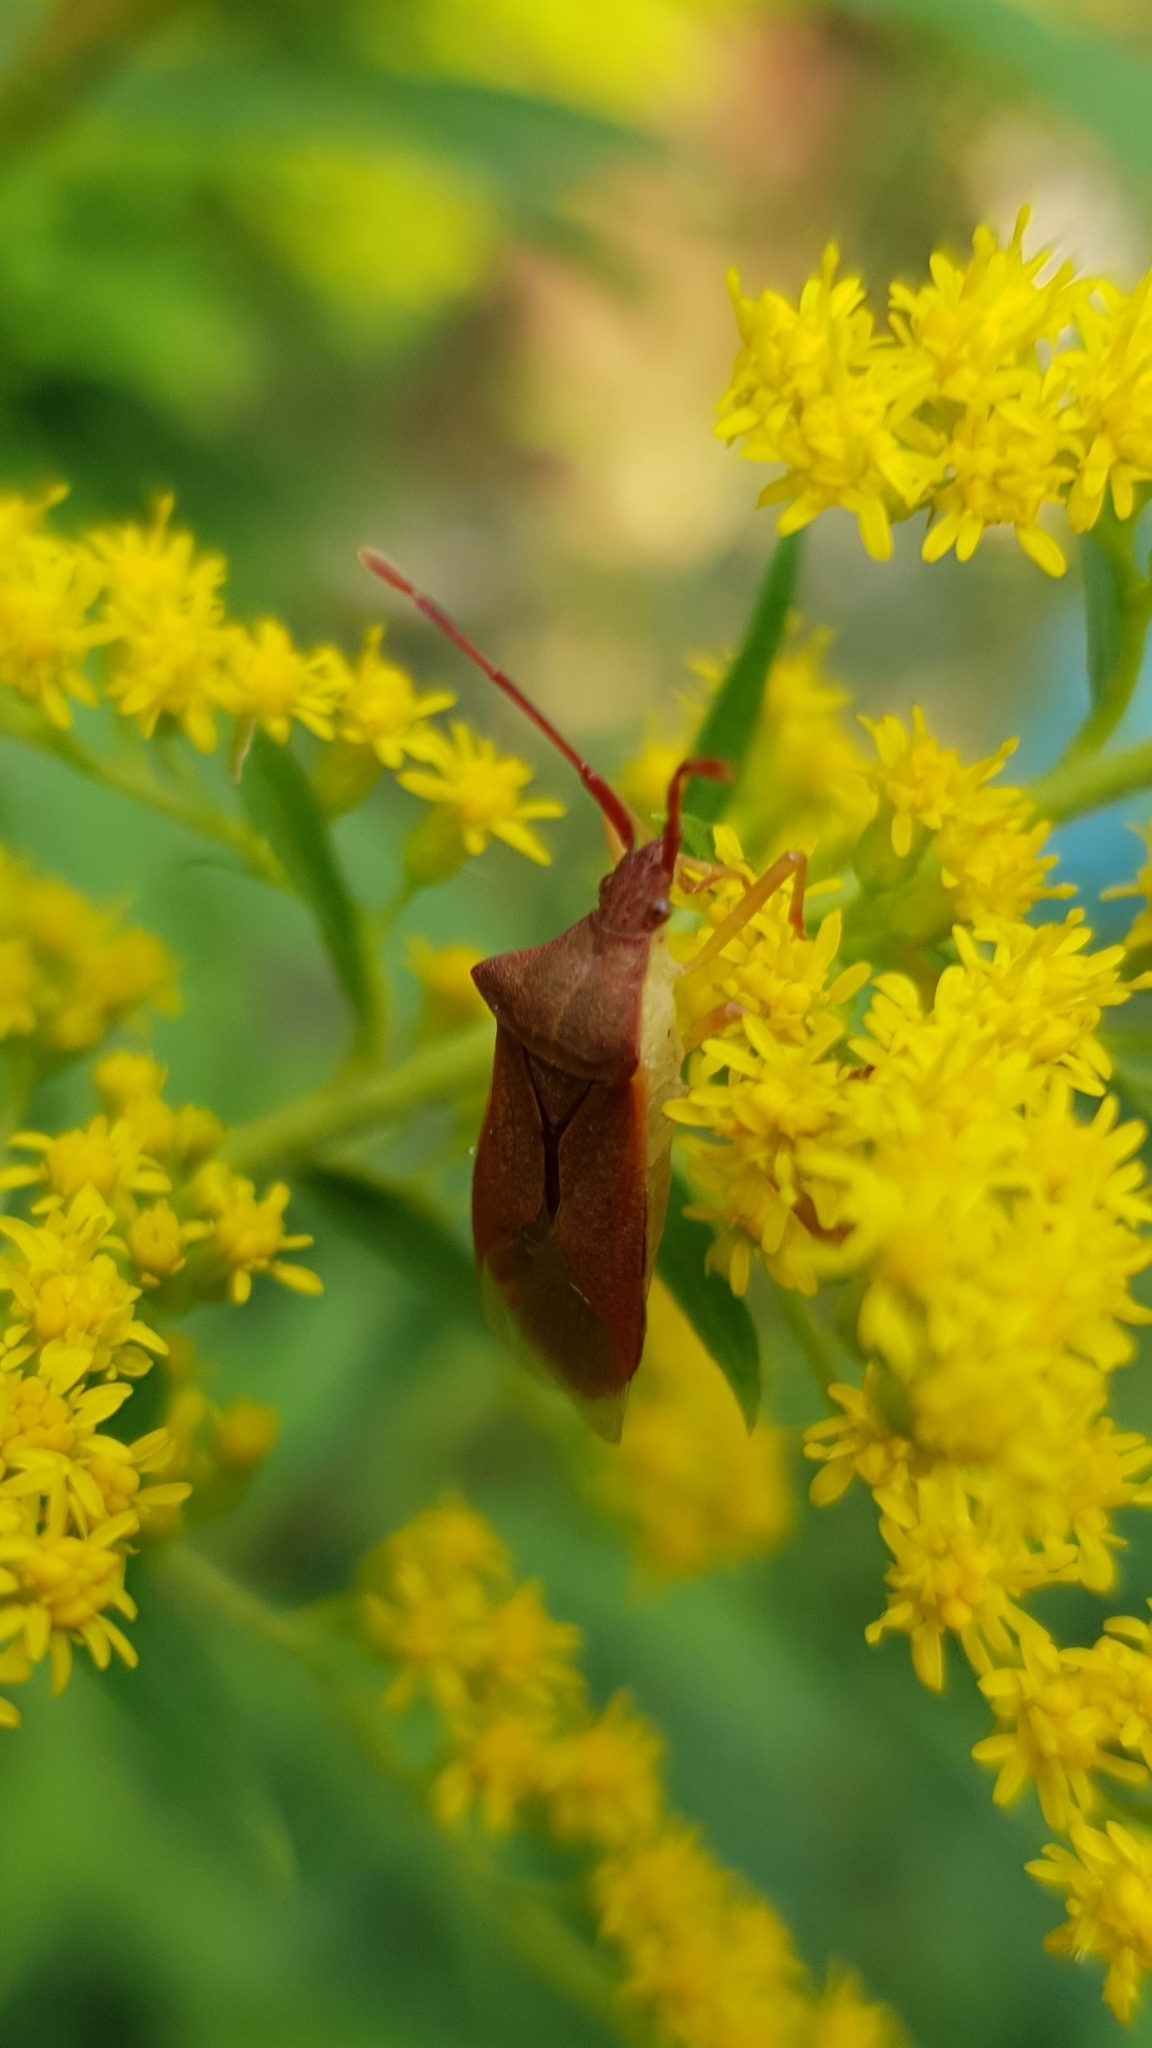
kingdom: Animalia
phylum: Arthropoda
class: Insecta
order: Hemiptera
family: Coreidae
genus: Gonocerus
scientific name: Gonocerus acuteangulatus
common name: Box bug
